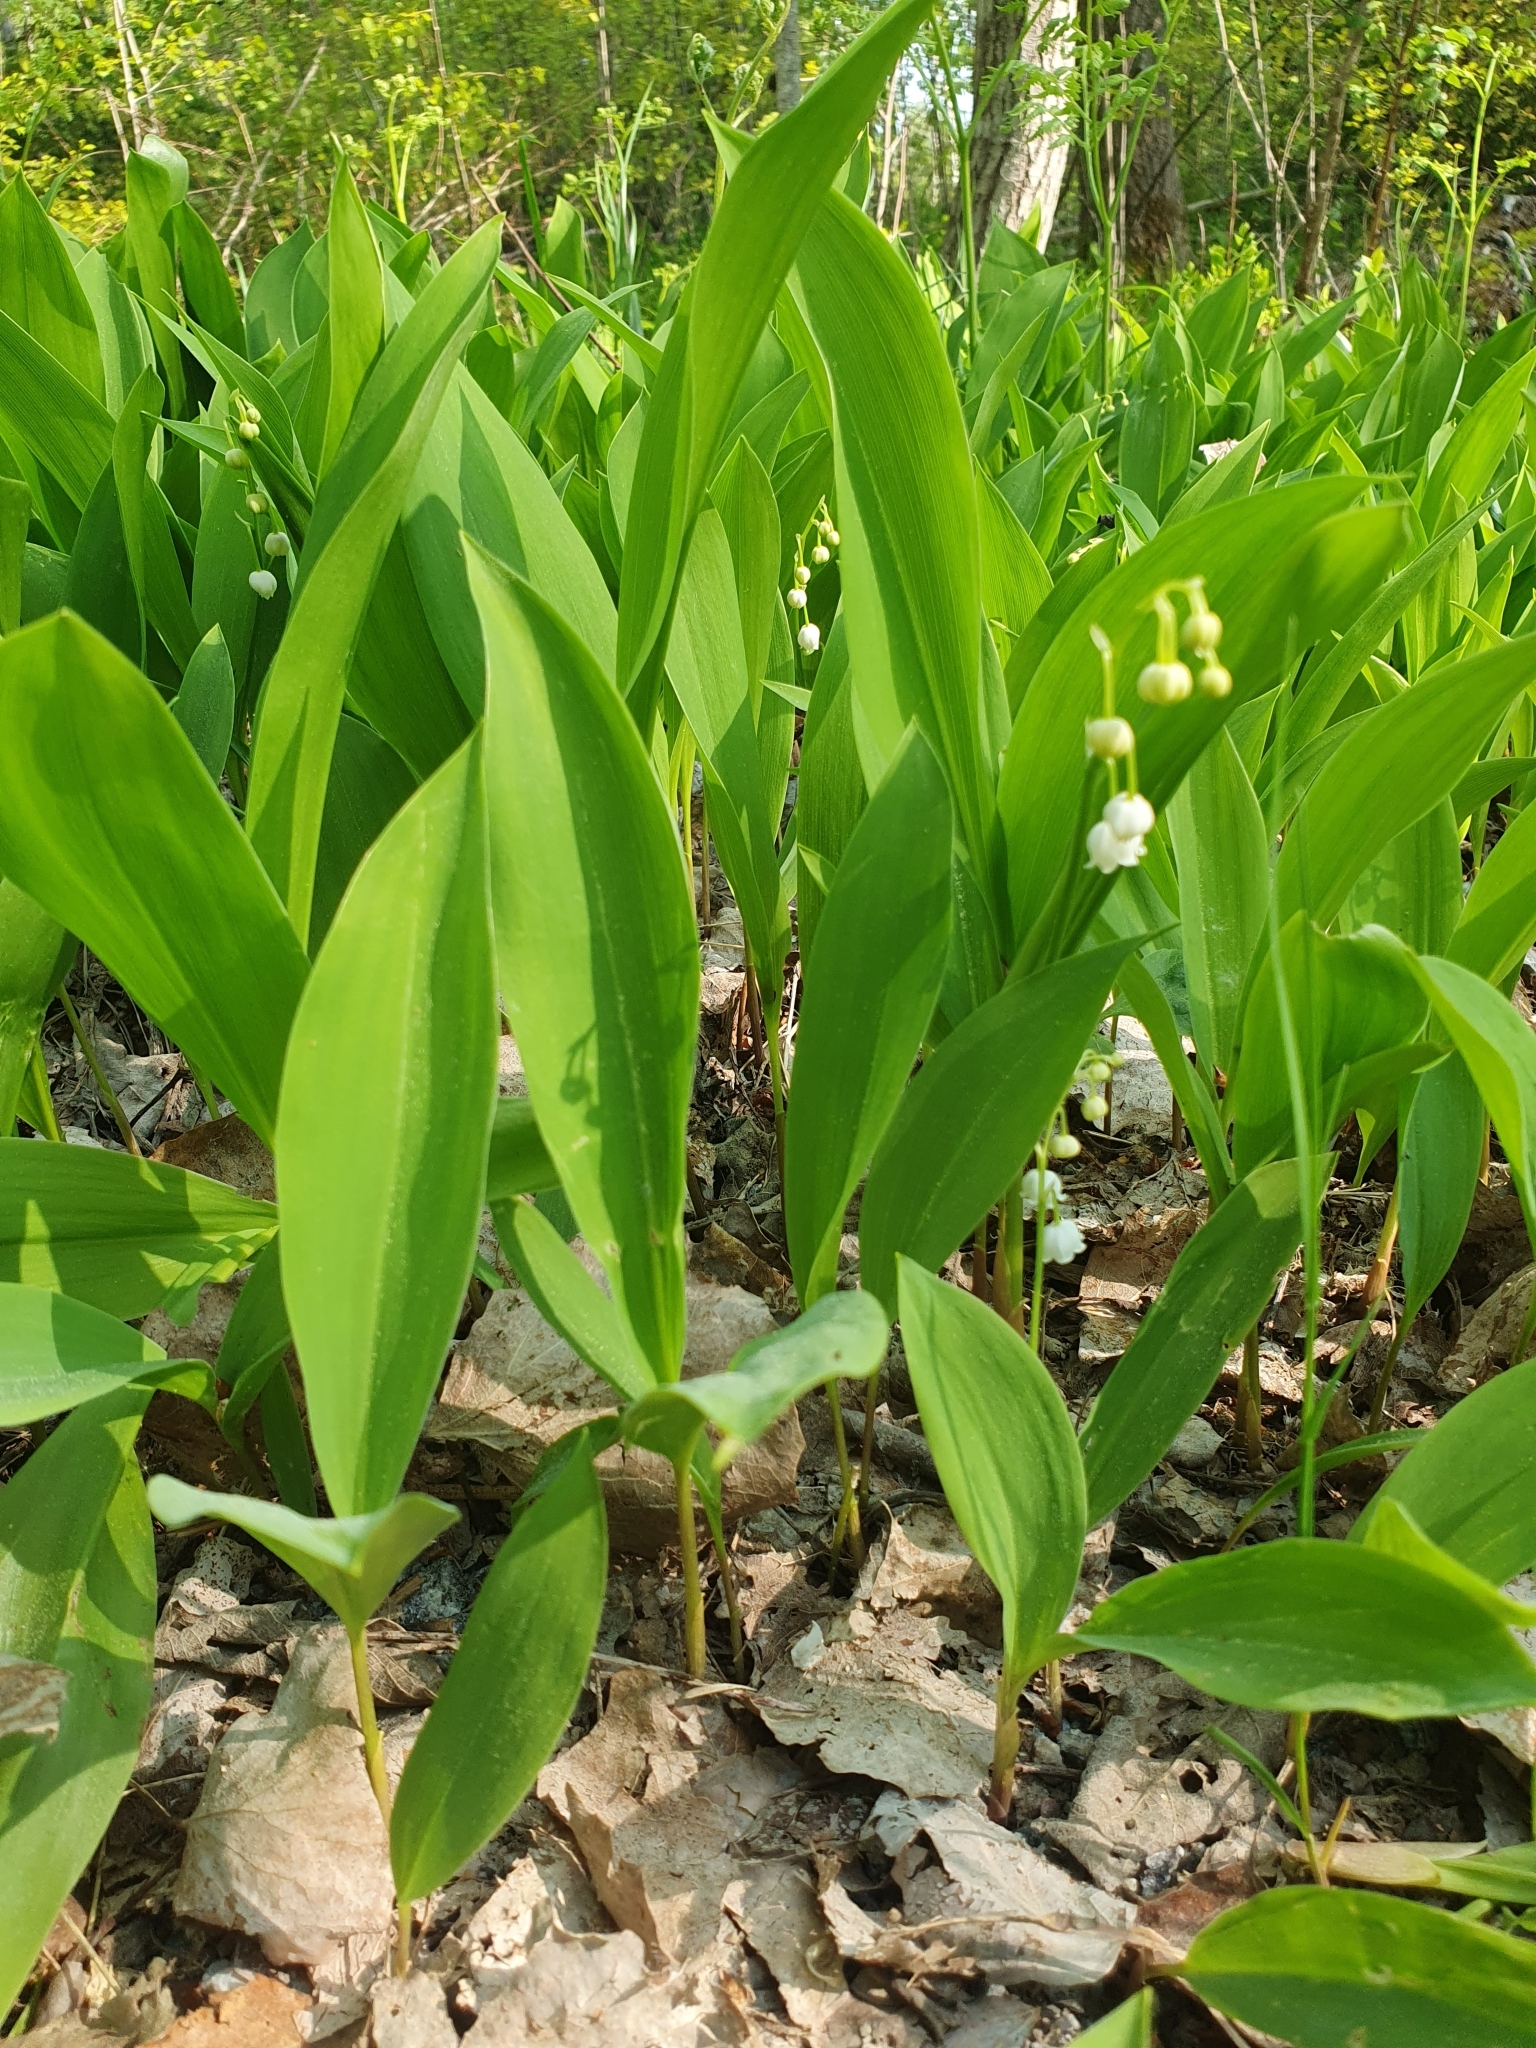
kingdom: Plantae
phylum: Tracheophyta
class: Liliopsida
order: Asparagales
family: Asparagaceae
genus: Convallaria
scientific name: Convallaria majalis
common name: Lily-of-the-valley
